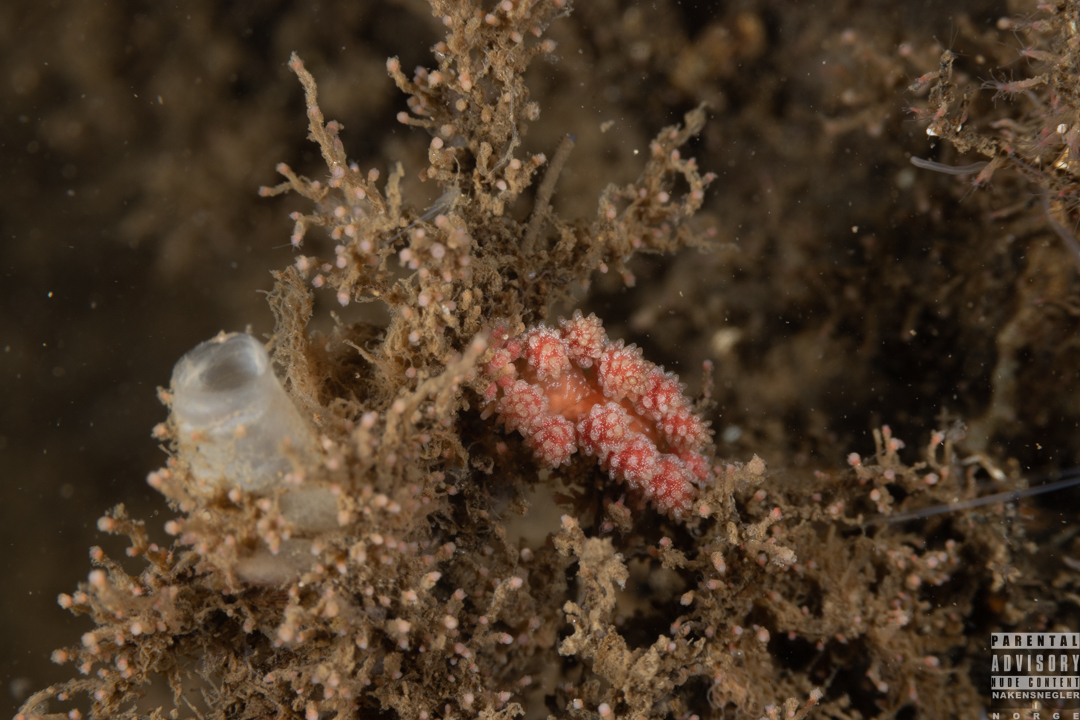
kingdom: Animalia
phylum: Mollusca
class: Gastropoda
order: Nudibranchia
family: Dotidae
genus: Doto
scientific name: Doto fragilis
